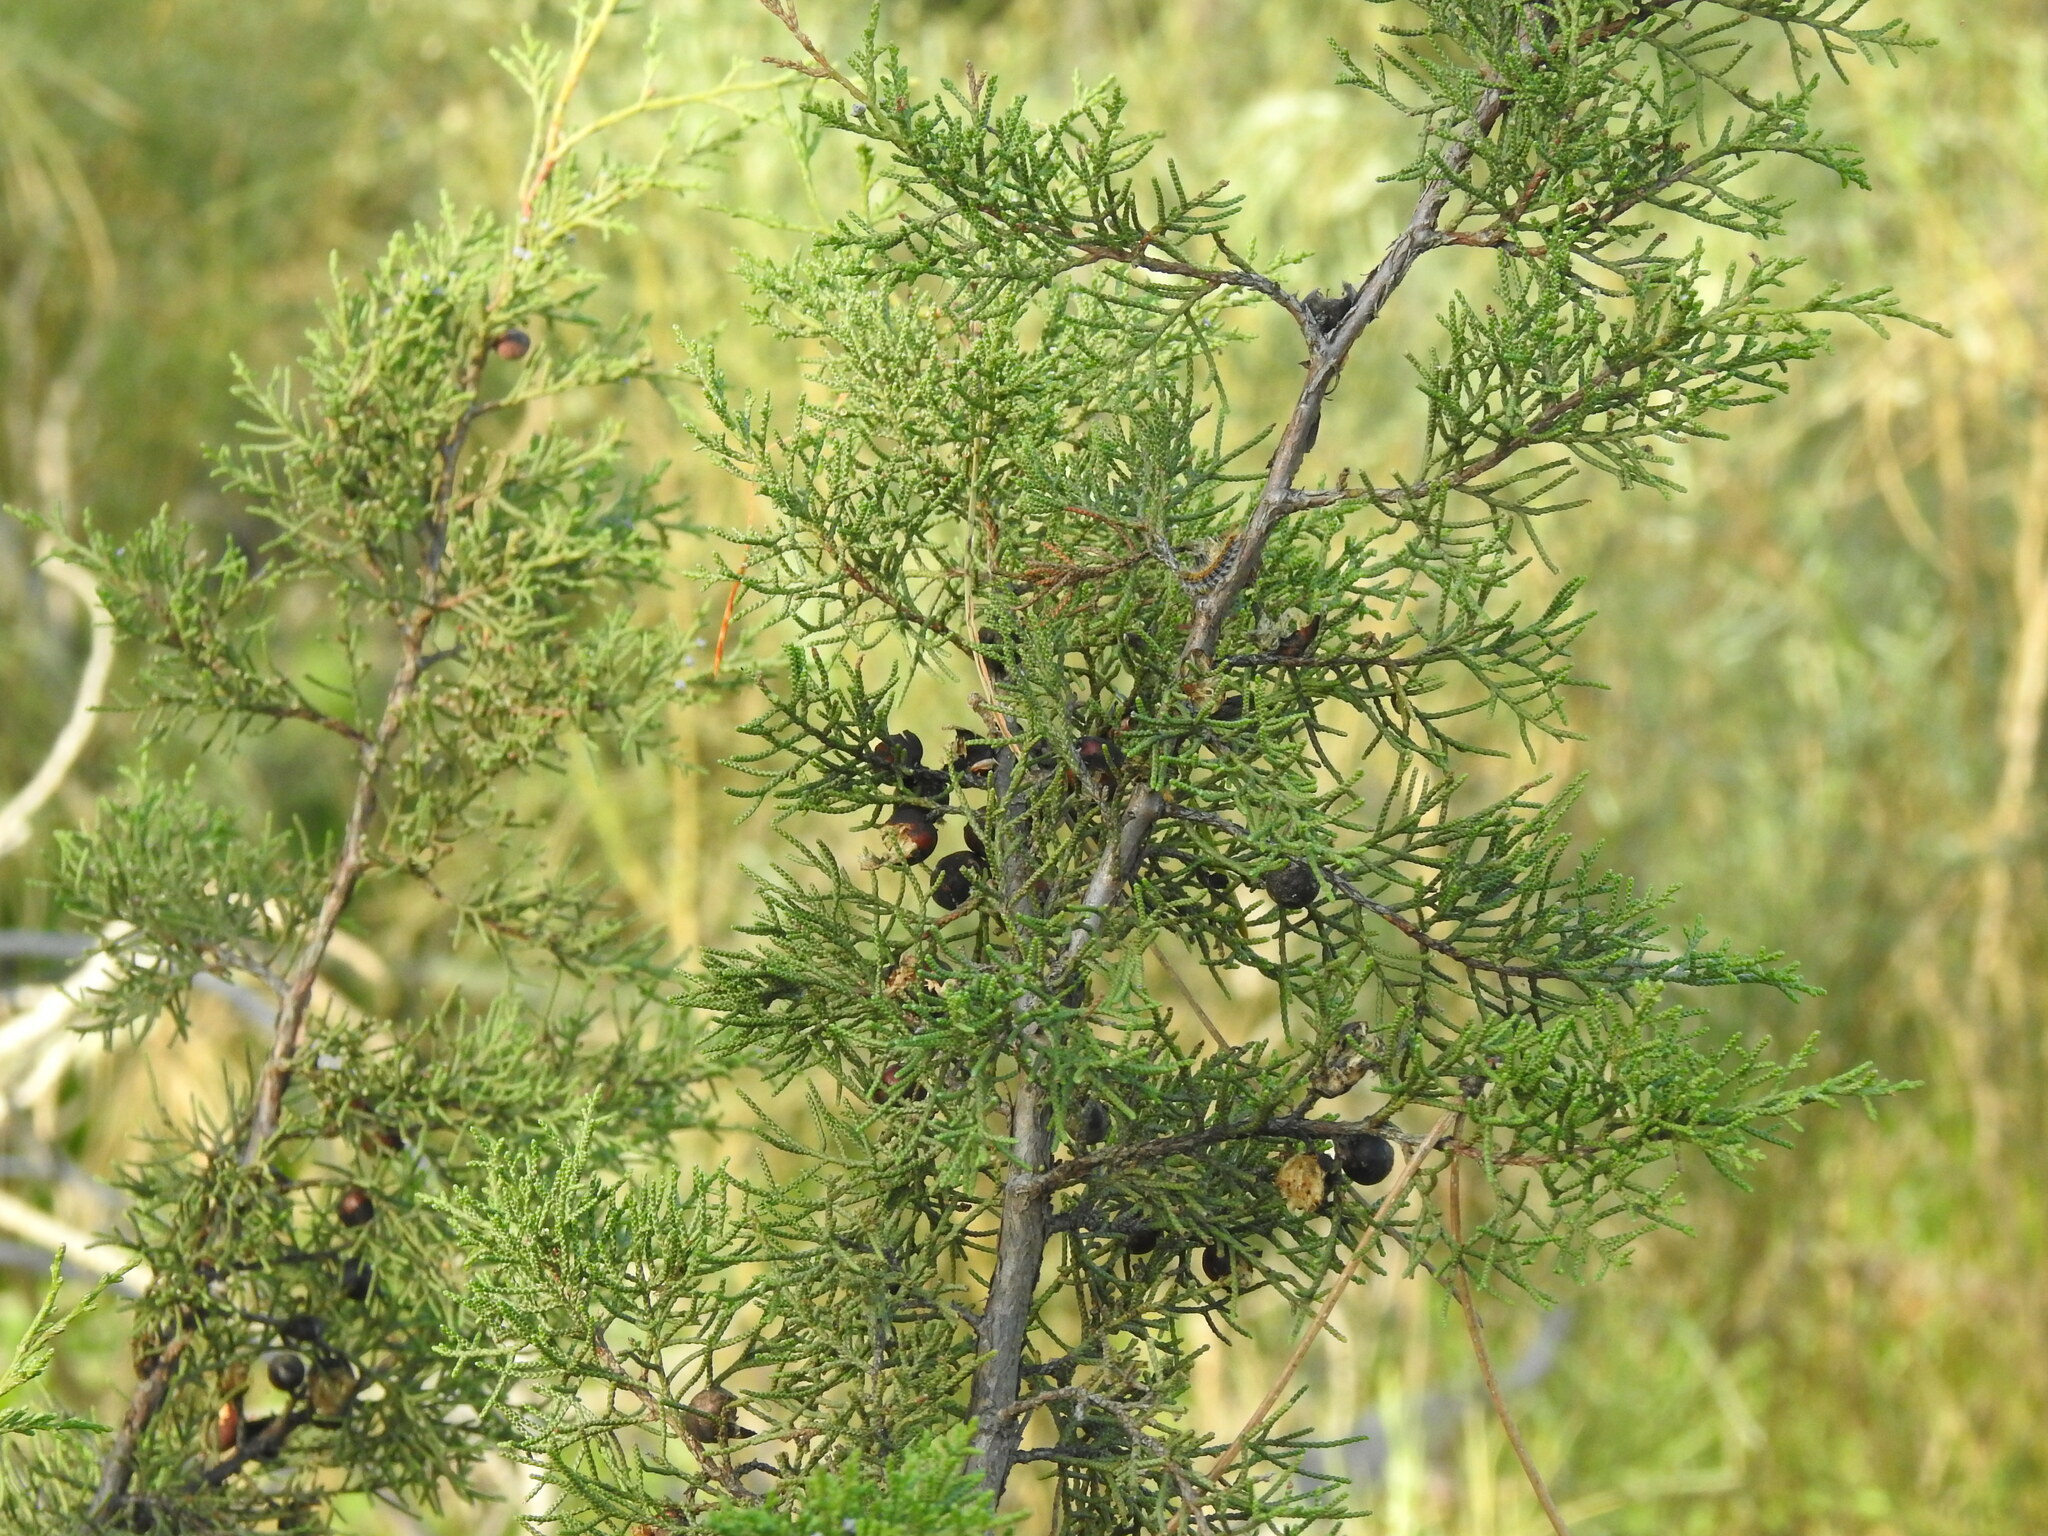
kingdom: Plantae
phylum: Tracheophyta
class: Pinopsida
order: Pinales
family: Cupressaceae
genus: Juniperus
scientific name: Juniperus phoenicea
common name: Phoenician juniper
